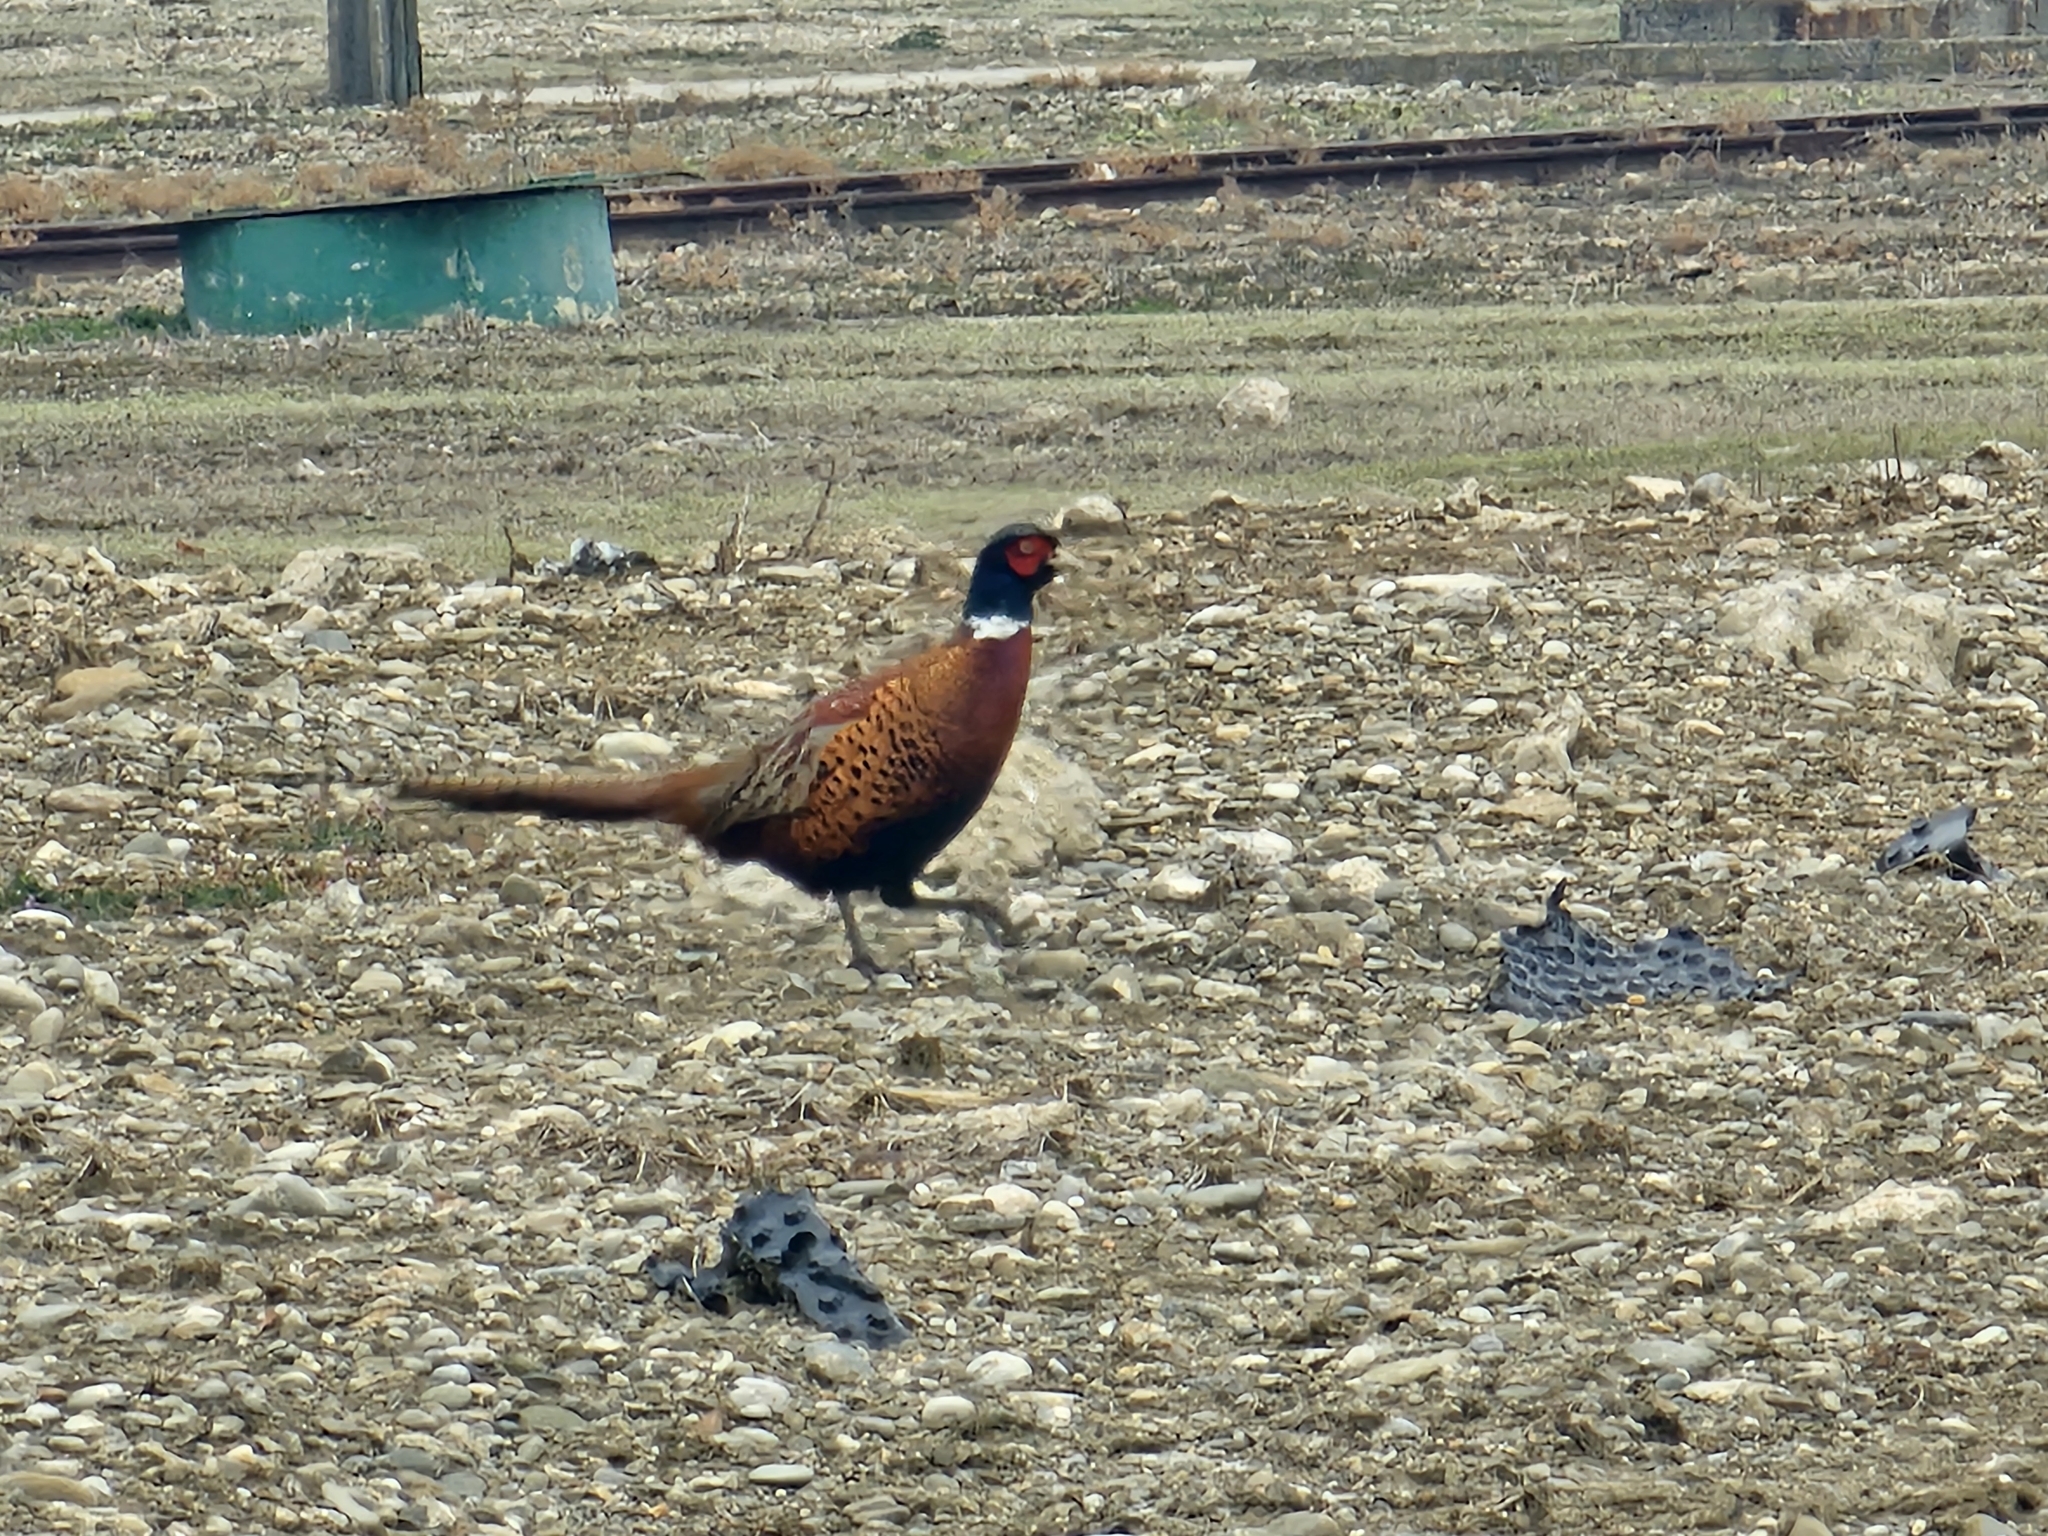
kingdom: Animalia
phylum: Chordata
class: Aves
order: Galliformes
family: Phasianidae
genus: Phasianus
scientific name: Phasianus colchicus
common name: Common pheasant
